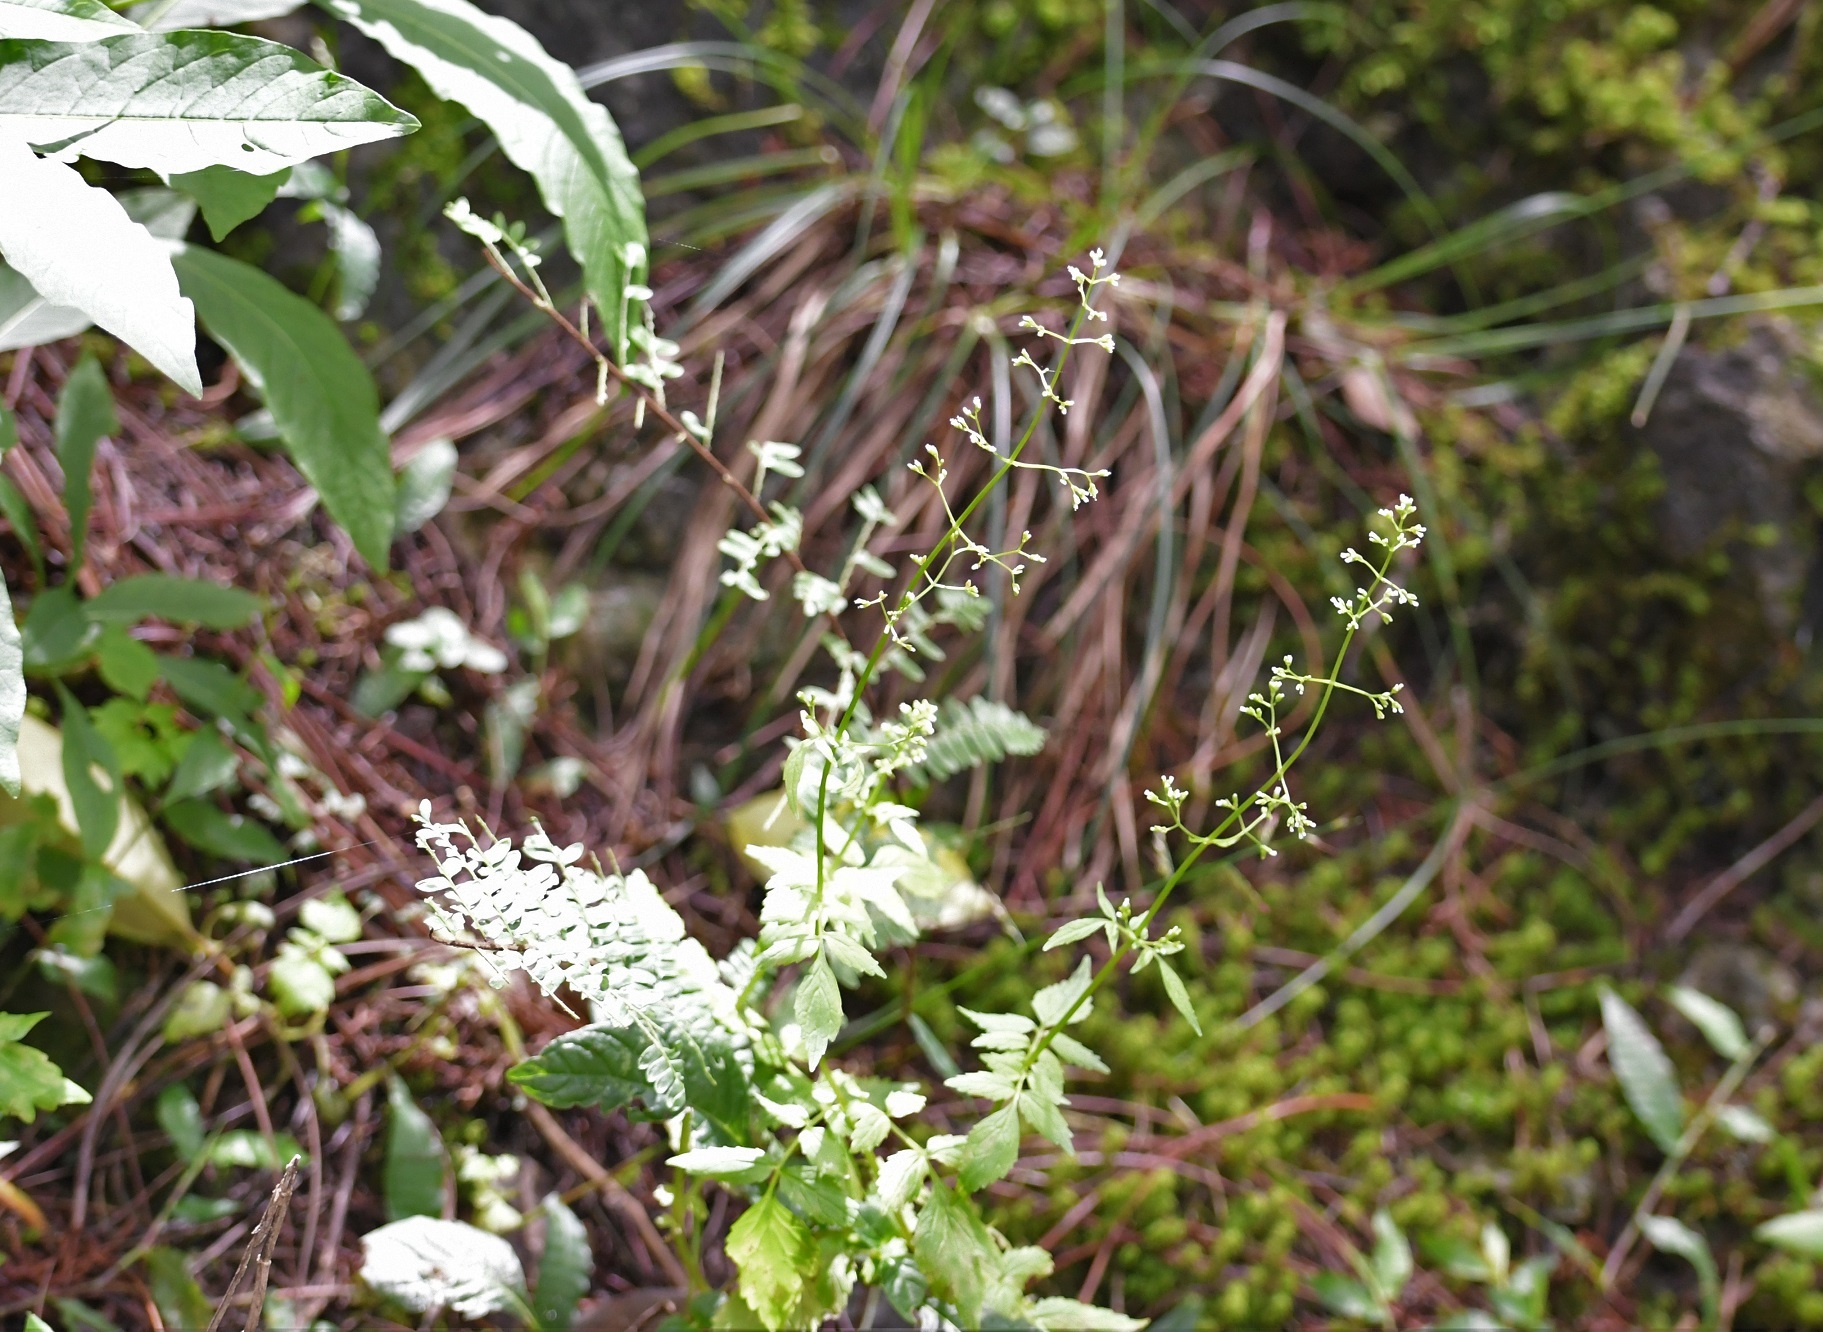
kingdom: Plantae
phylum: Tracheophyta
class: Magnoliopsida
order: Dipsacales
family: Caprifoliaceae
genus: Valeriana
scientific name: Valeriana chiapensis
